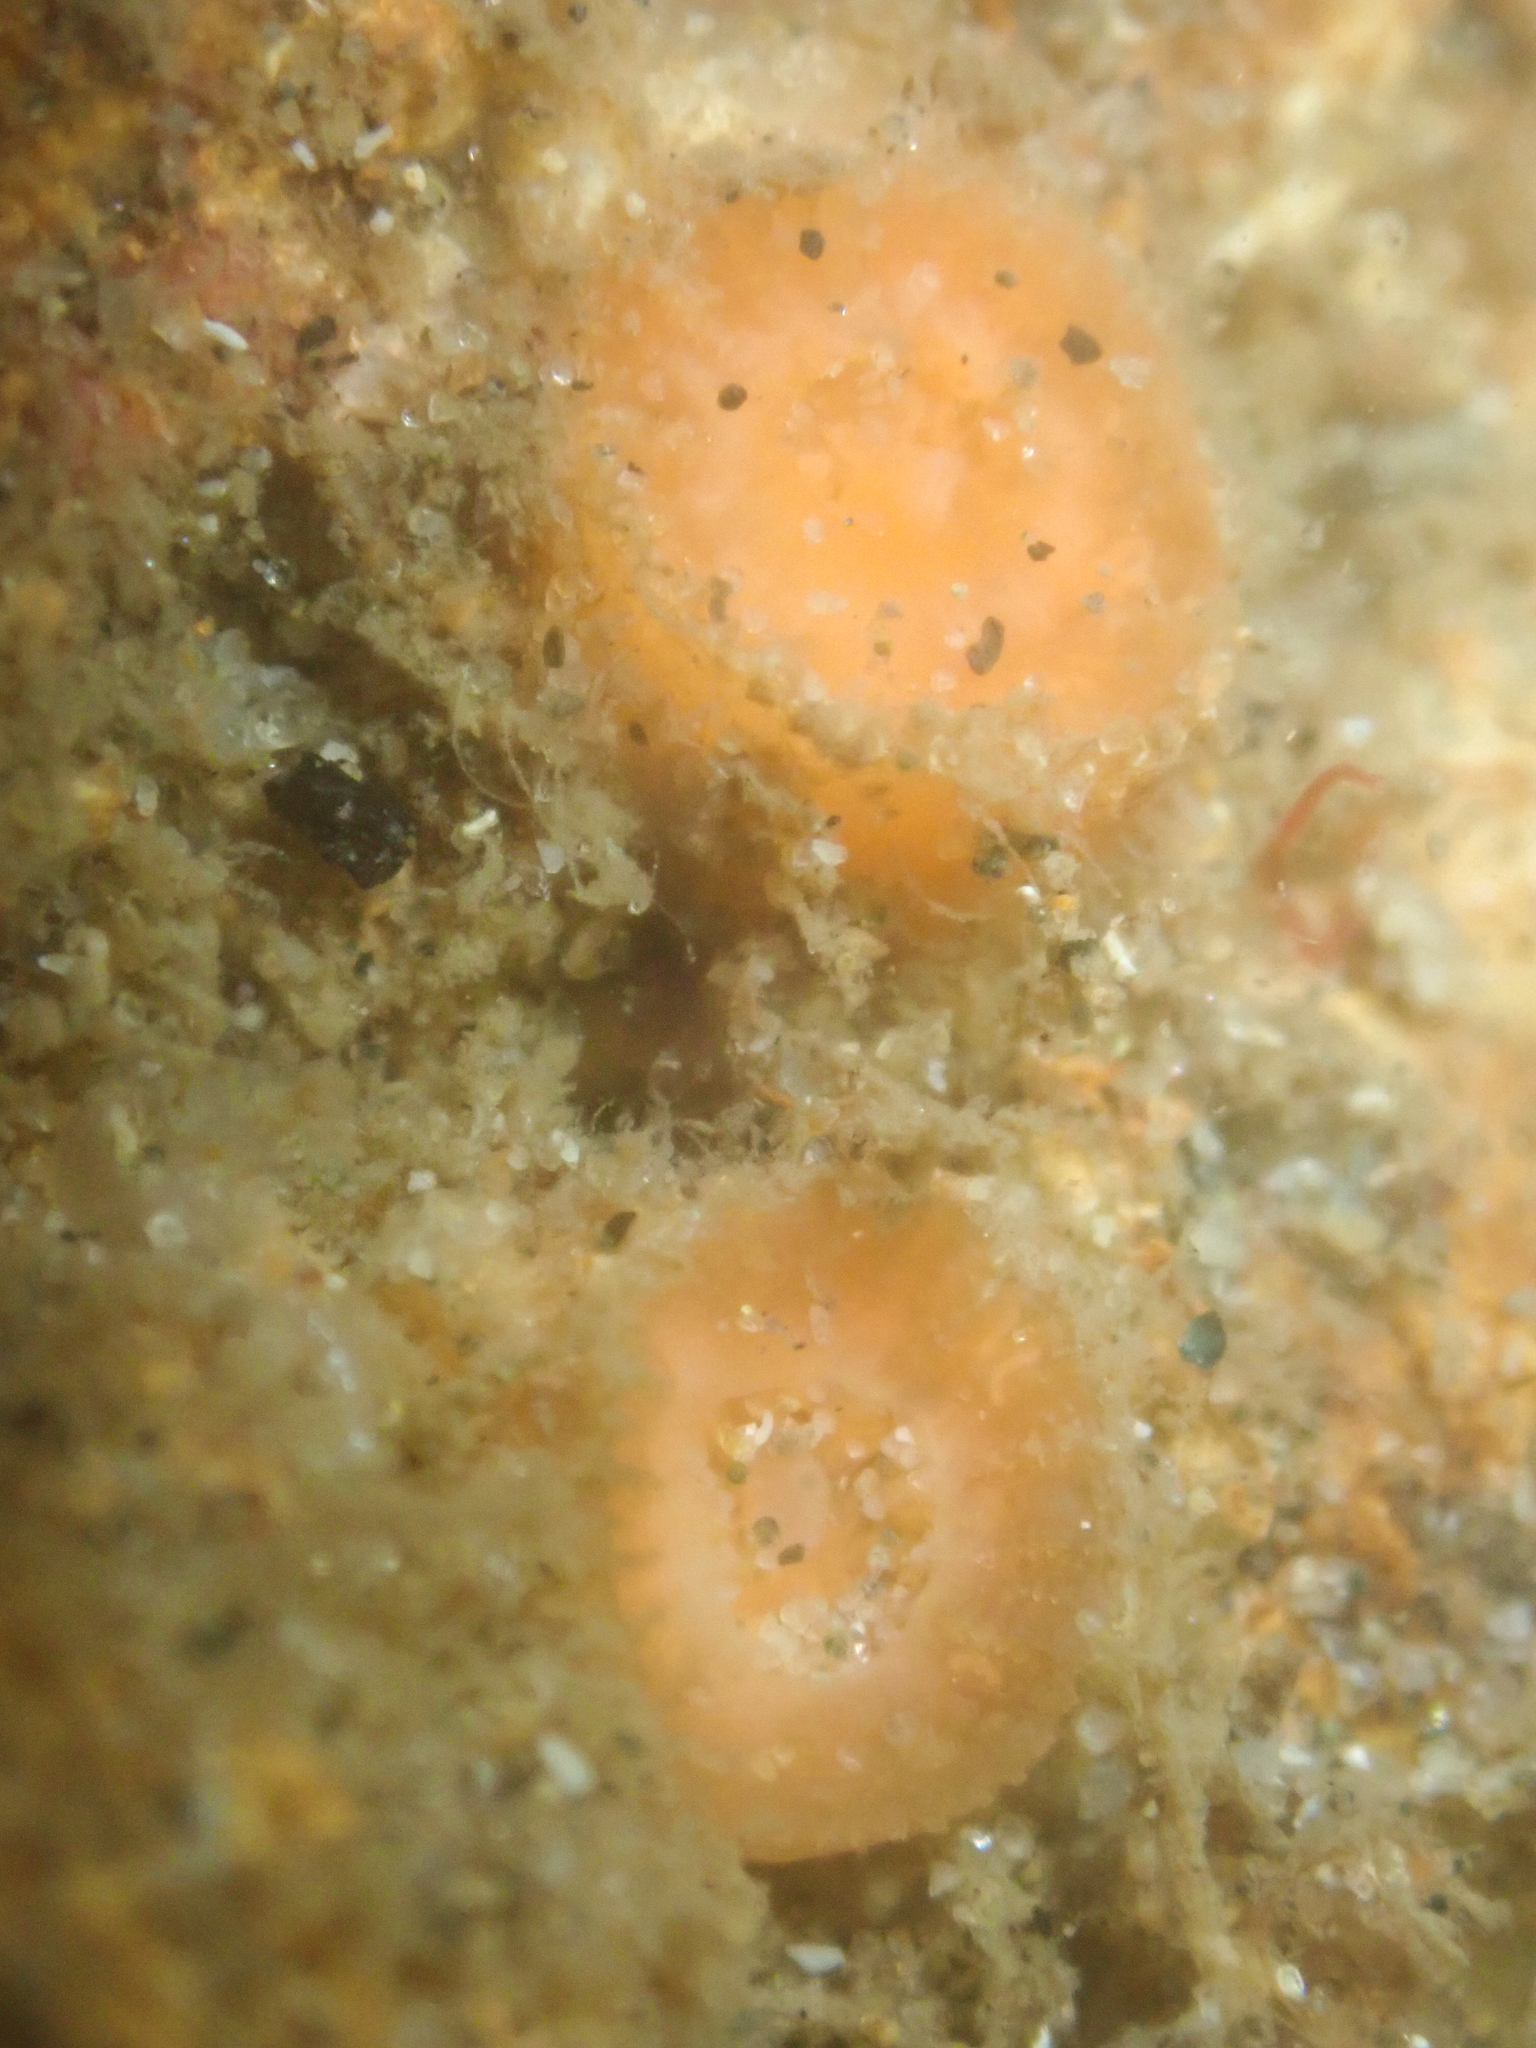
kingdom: Animalia
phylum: Cnidaria
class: Anthozoa
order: Scleractinia
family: Astrangiidae
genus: Astrangia
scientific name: Astrangia haimei
